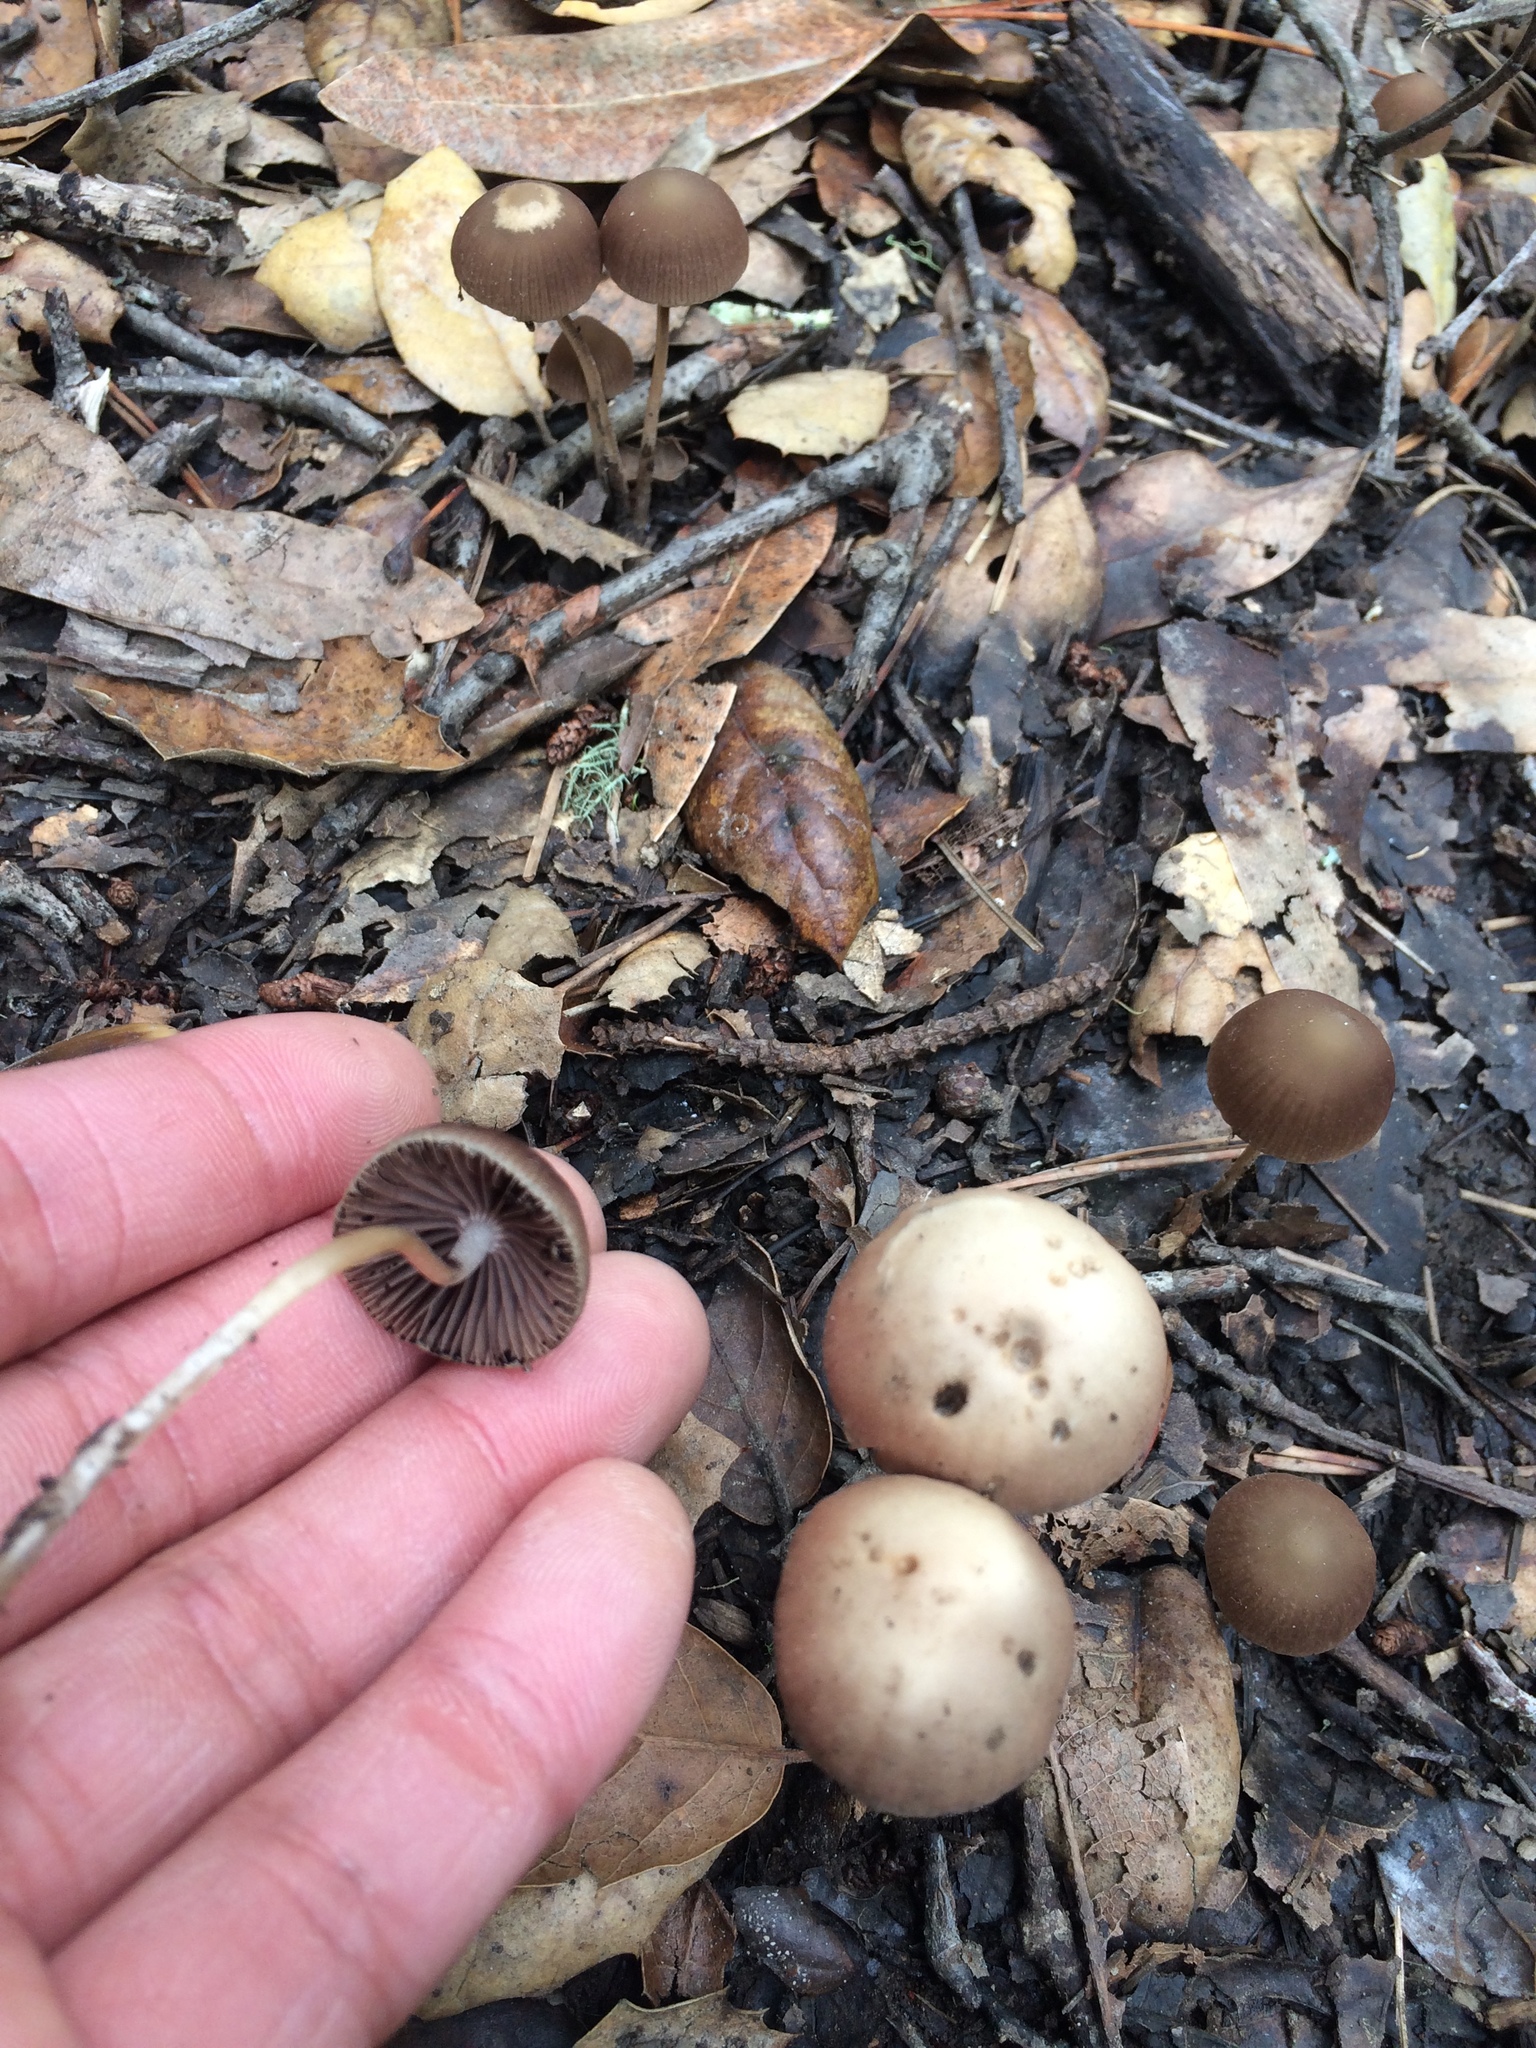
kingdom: Fungi
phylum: Basidiomycota
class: Agaricomycetes
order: Agaricales
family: Psathyrellaceae
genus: Psathyrella
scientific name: Psathyrella corrugis
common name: Red edge brittlestem
